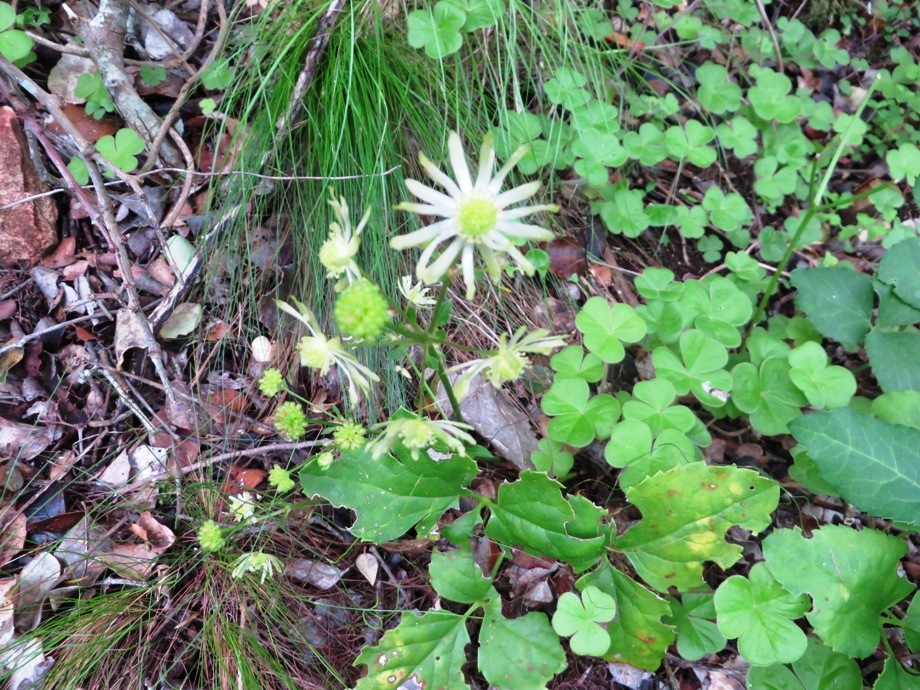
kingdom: Plantae
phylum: Tracheophyta
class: Magnoliopsida
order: Ranunculales
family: Ranunculaceae
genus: Knowltonia
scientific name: Knowltonia vesicatoria
